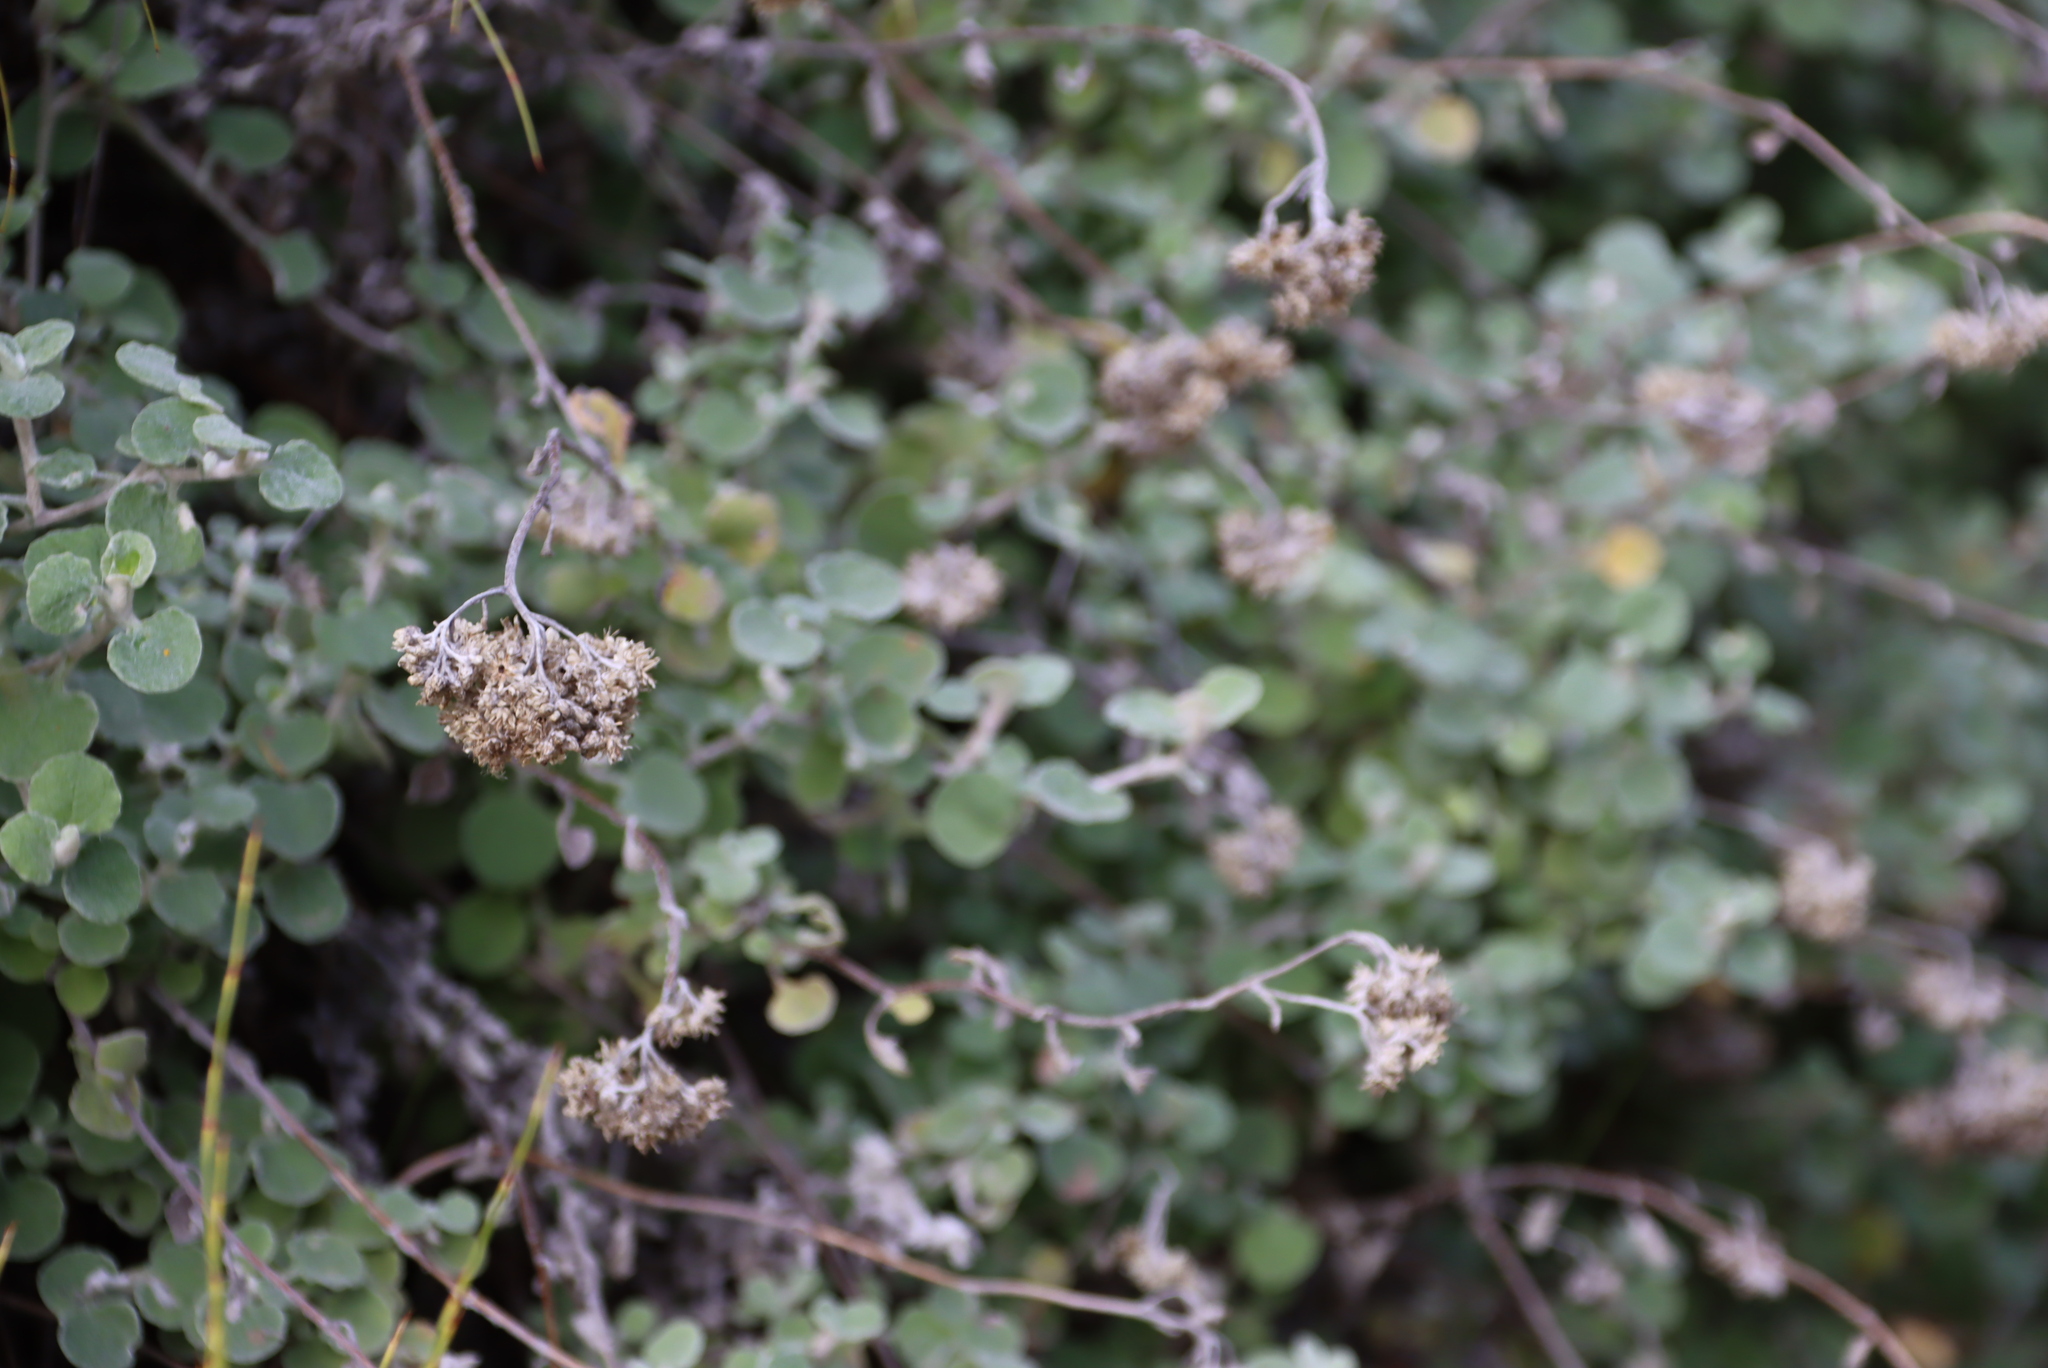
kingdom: Plantae
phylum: Tracheophyta
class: Magnoliopsida
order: Asterales
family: Asteraceae
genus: Helichrysum
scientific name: Helichrysum petiolare
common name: Licorice-plant
